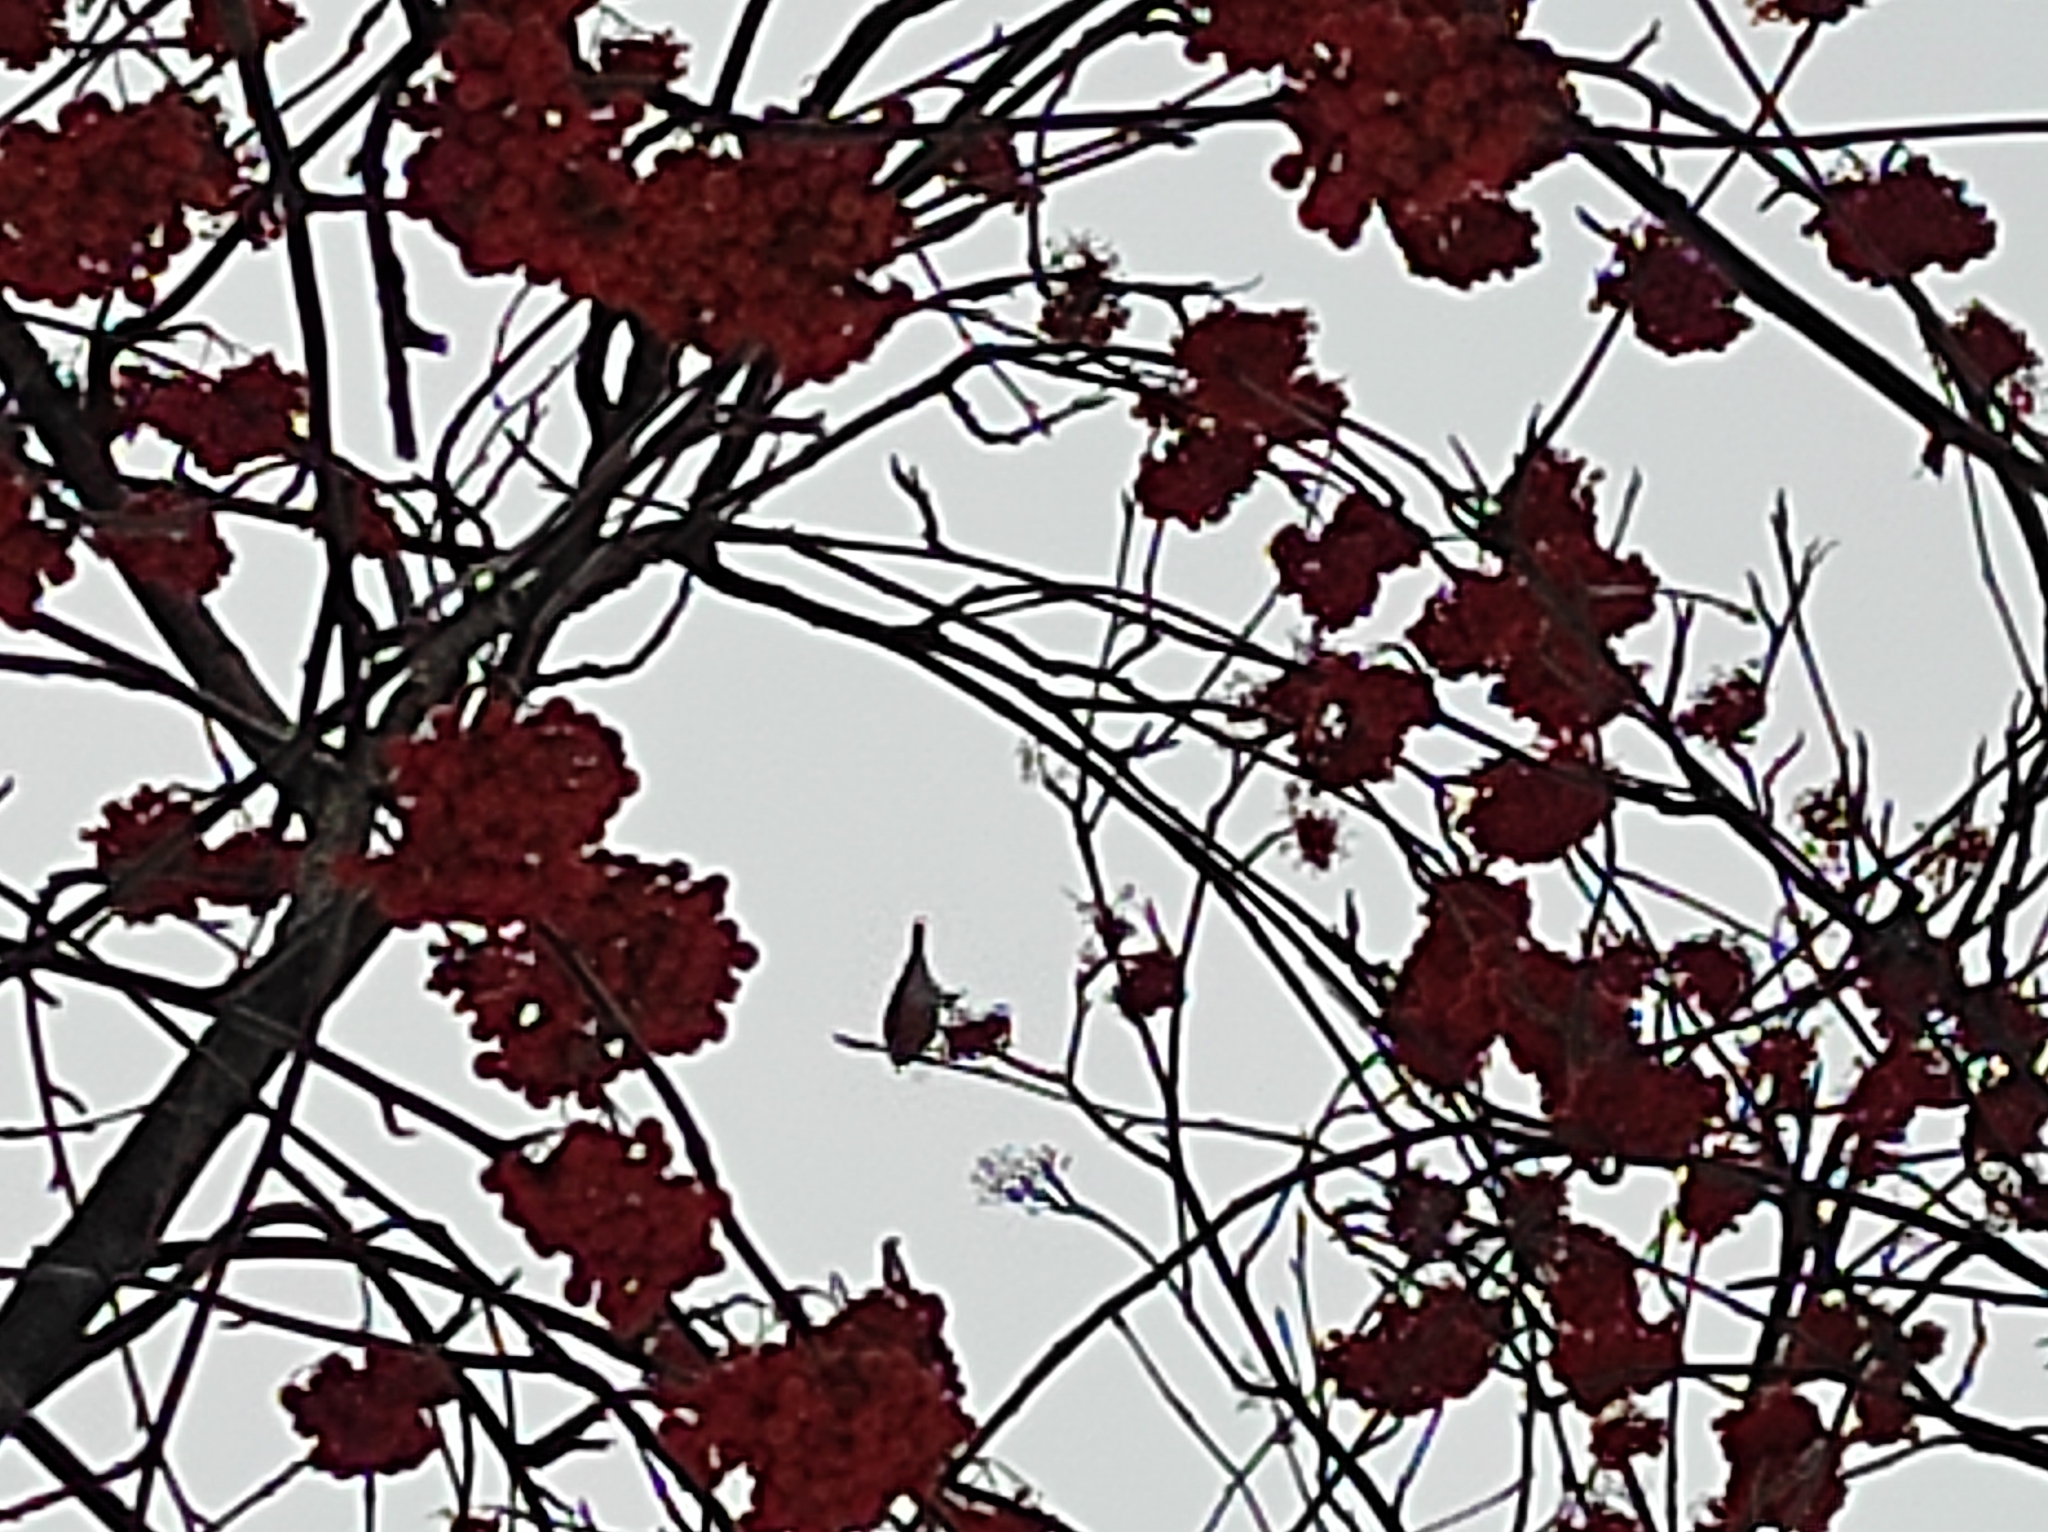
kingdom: Animalia
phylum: Chordata
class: Aves
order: Passeriformes
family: Fringillidae
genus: Pyrrhula
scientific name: Pyrrhula pyrrhula
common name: Eurasian bullfinch
